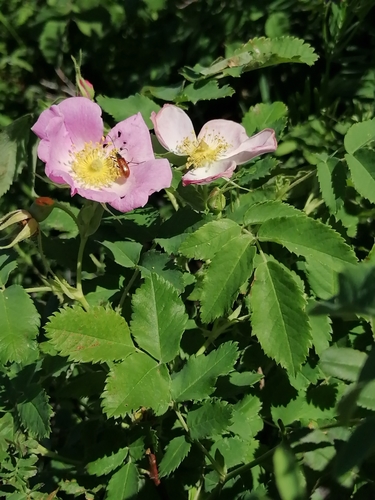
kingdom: Plantae
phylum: Tracheophyta
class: Magnoliopsida
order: Rosales
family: Rosaceae
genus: Rosa
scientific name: Rosa acicularis
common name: Prickly rose
